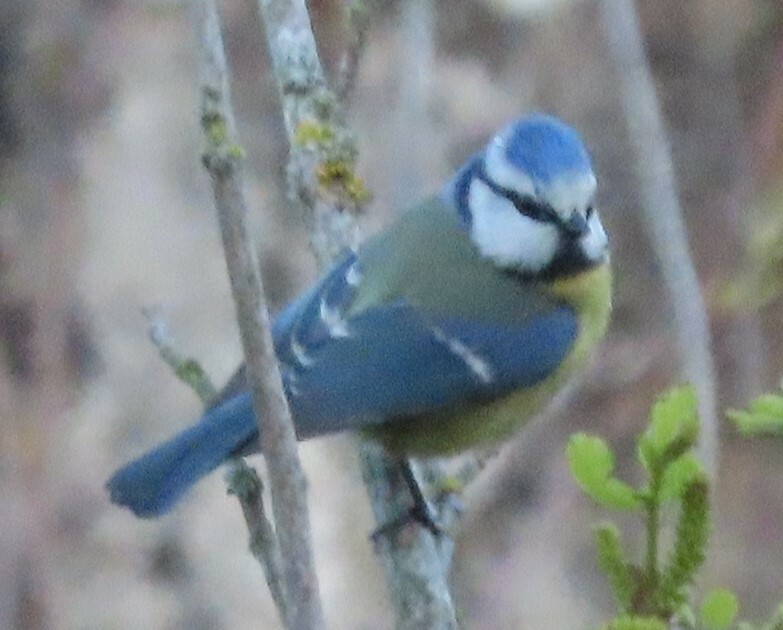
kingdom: Animalia
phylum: Chordata
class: Aves
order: Passeriformes
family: Paridae
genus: Cyanistes
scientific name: Cyanistes caeruleus
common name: Eurasian blue tit
